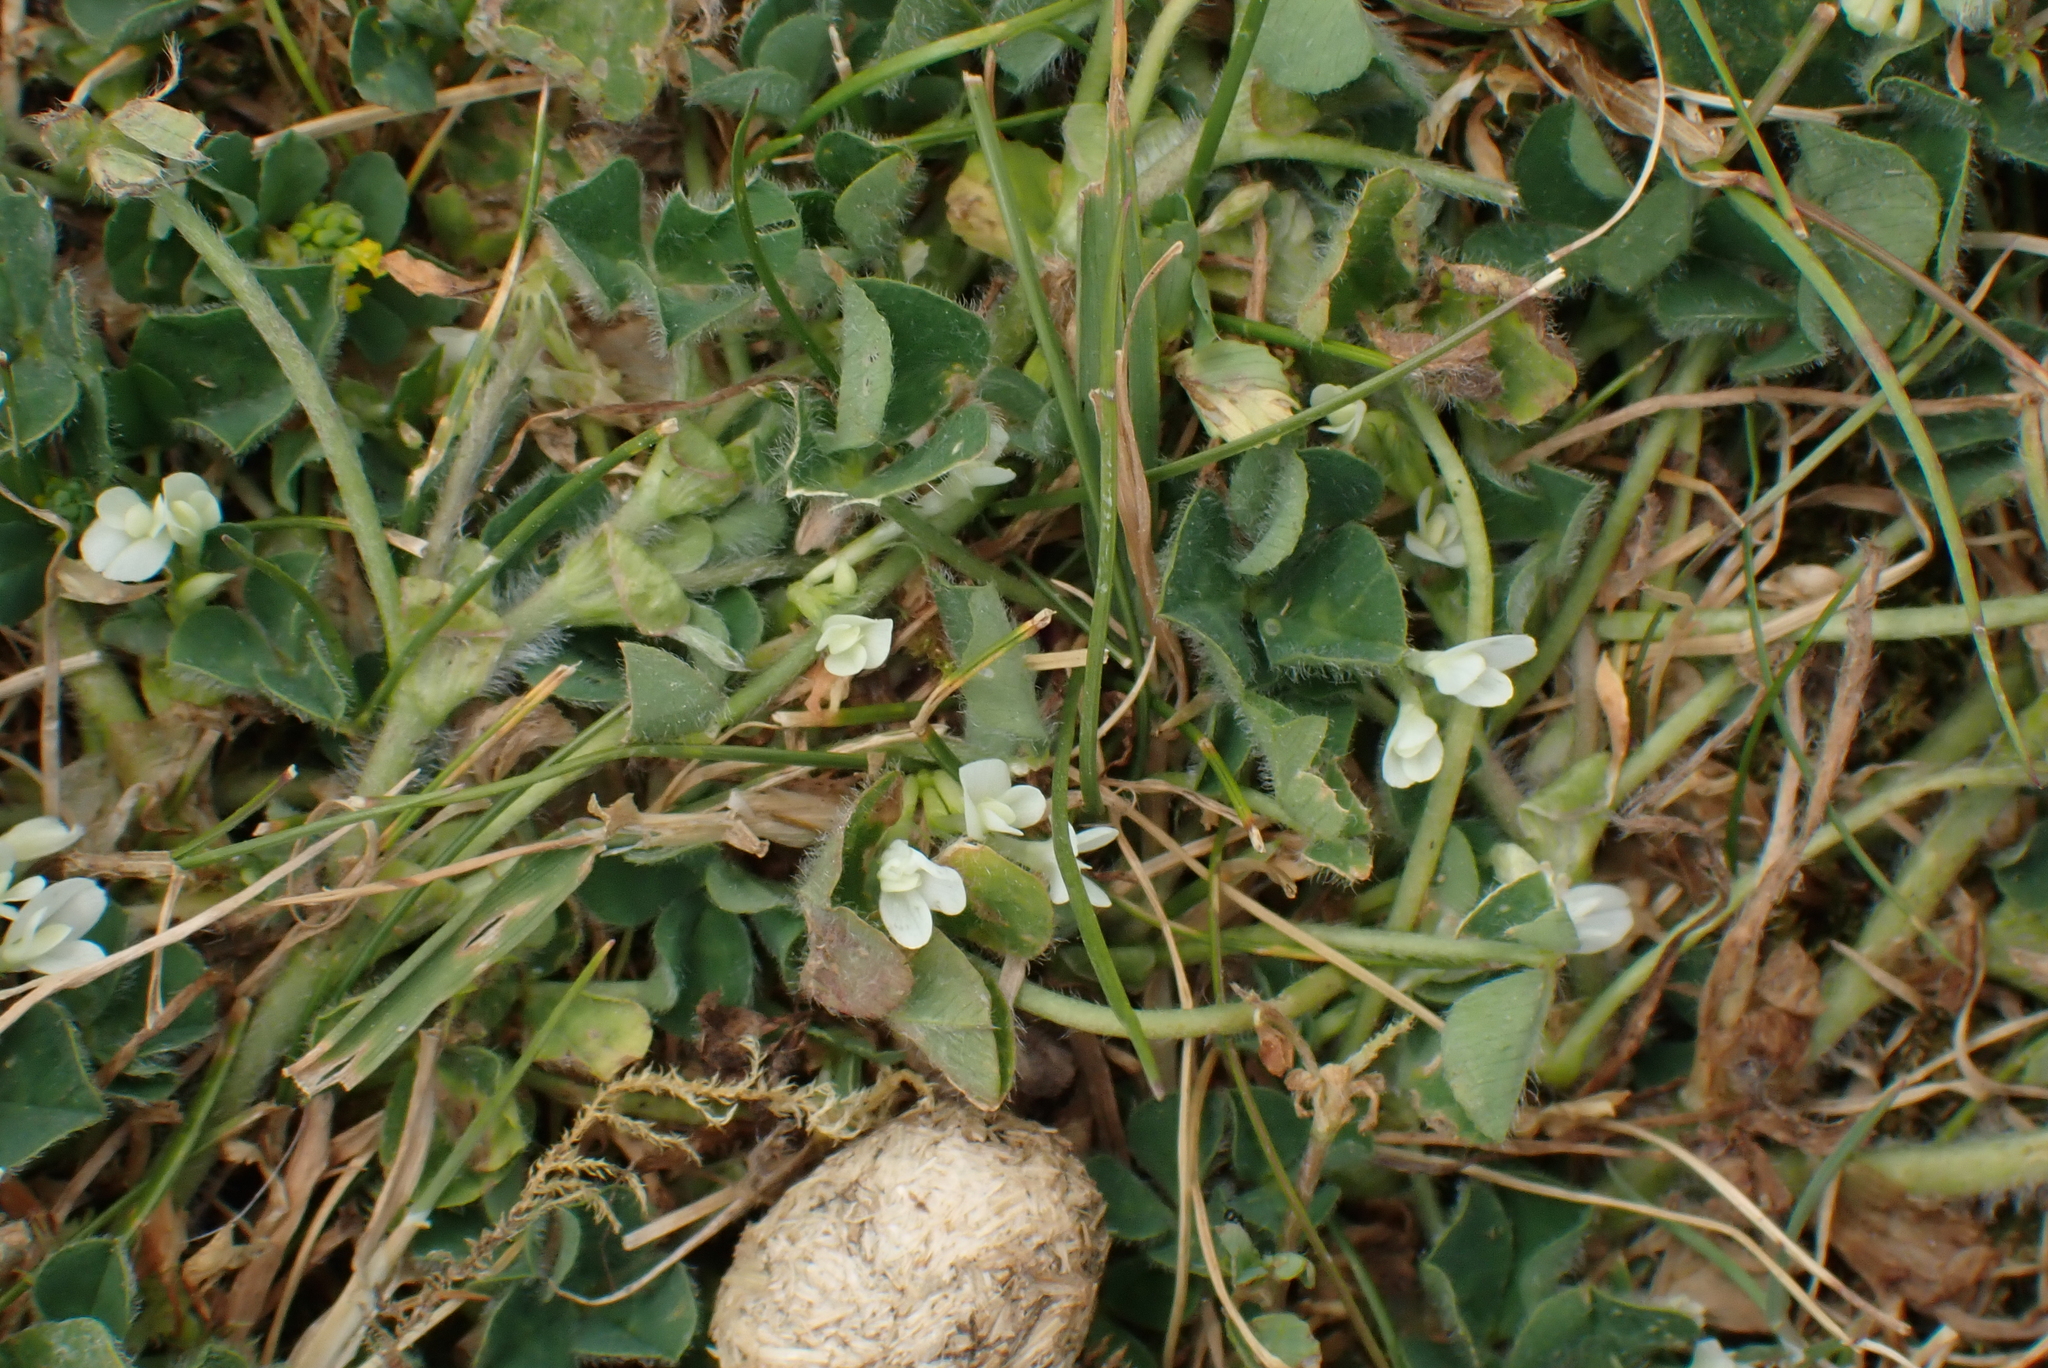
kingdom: Plantae
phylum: Tracheophyta
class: Magnoliopsida
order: Fabales
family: Fabaceae
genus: Trifolium
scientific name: Trifolium subterraneum
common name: Subterranean clover
